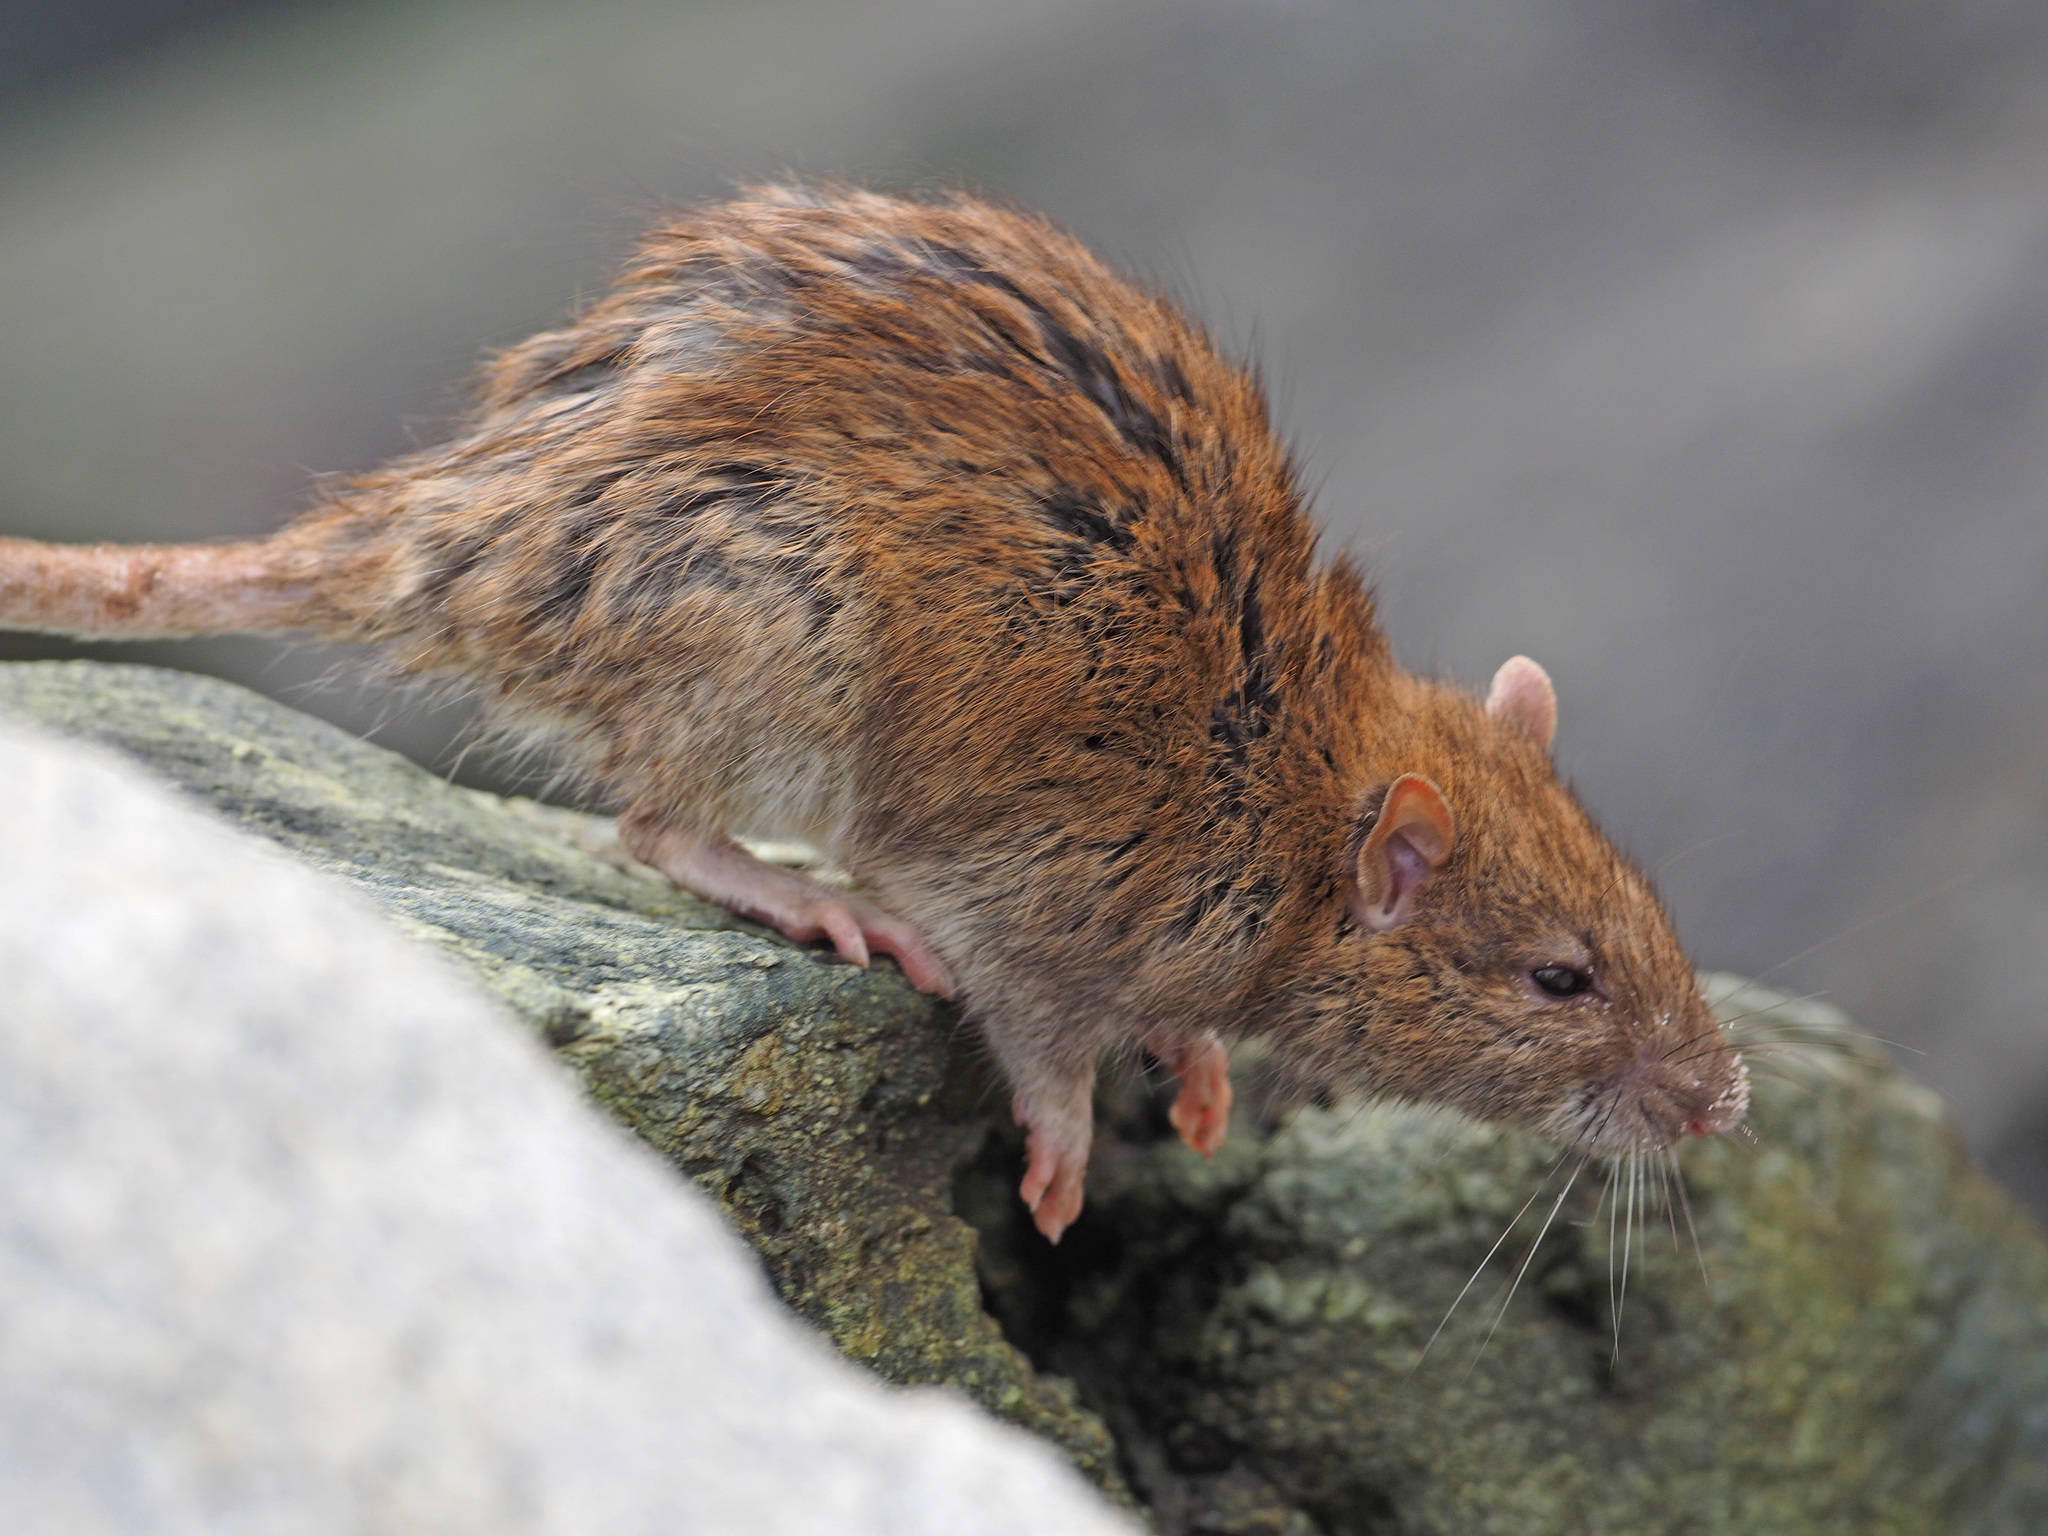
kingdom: Animalia
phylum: Chordata
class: Mammalia
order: Rodentia
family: Muridae
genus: Rattus
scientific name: Rattus norvegicus
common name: Brown rat
